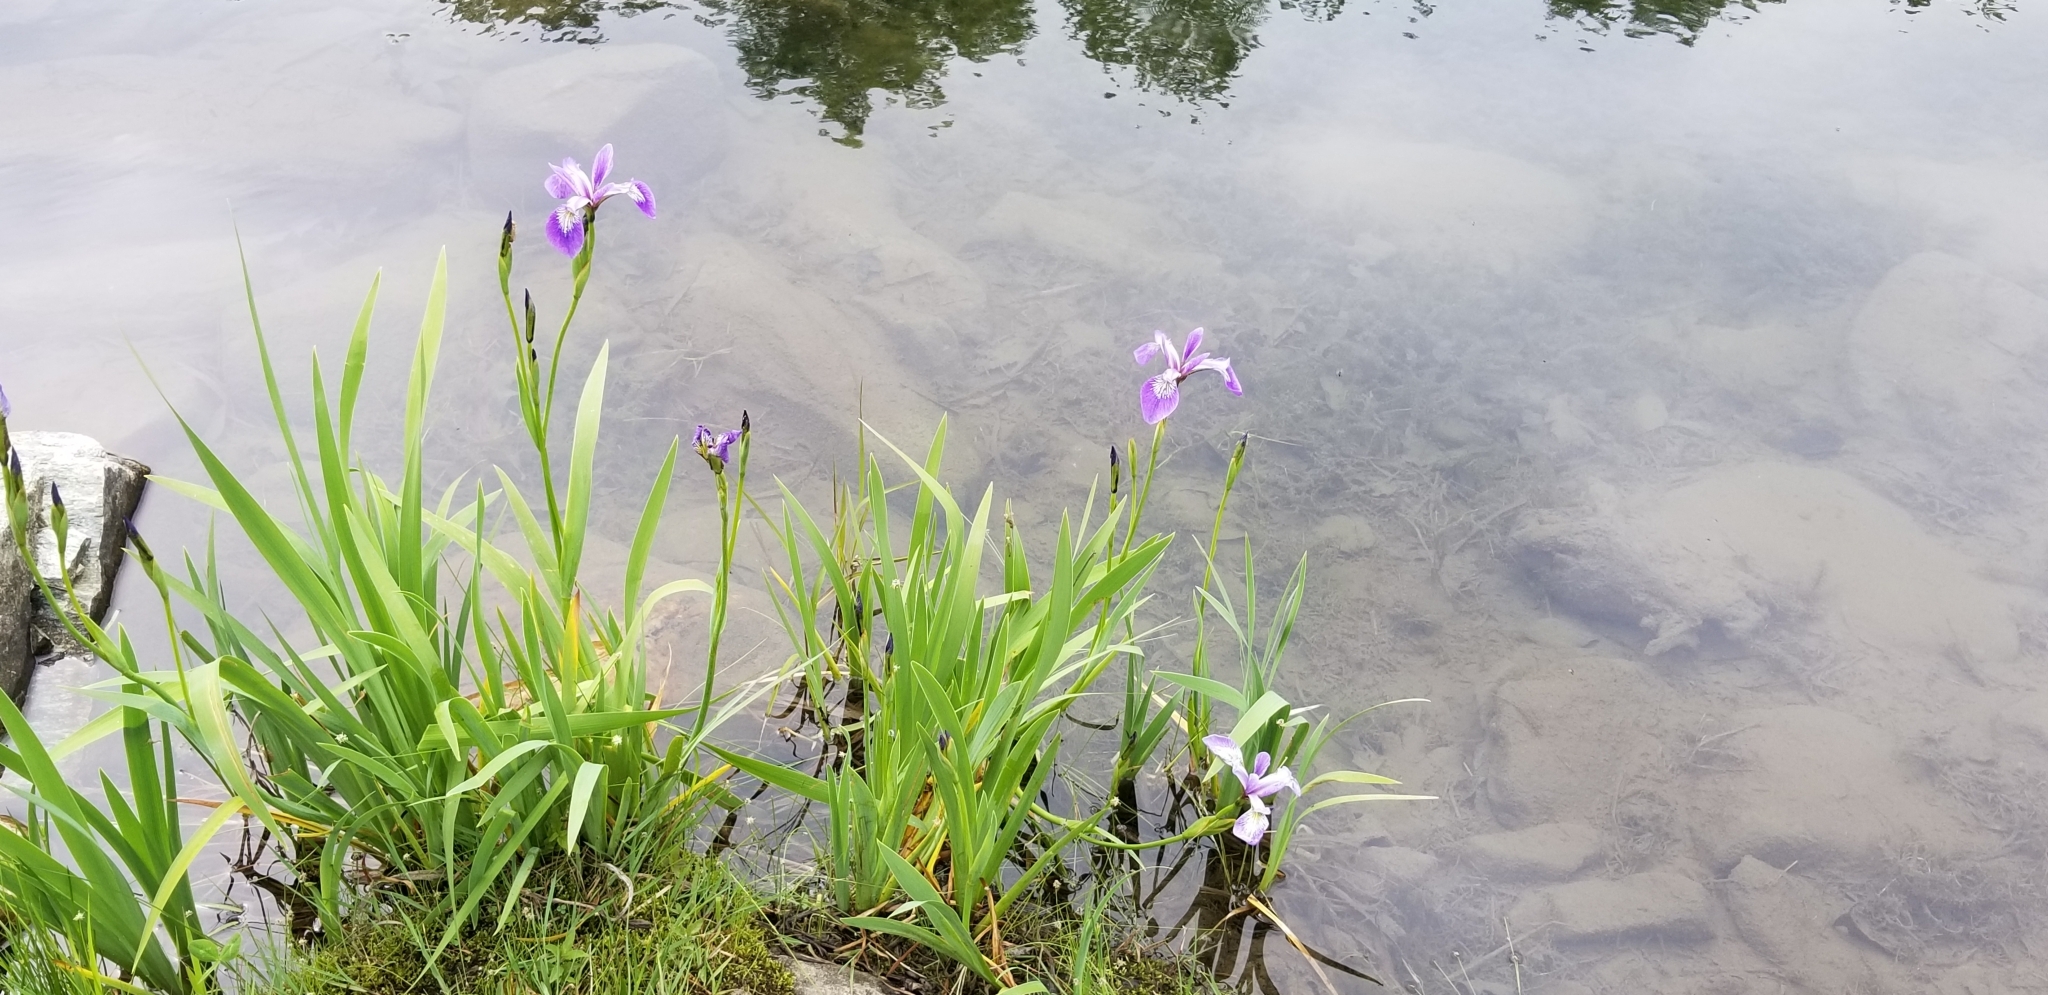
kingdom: Plantae
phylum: Tracheophyta
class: Liliopsida
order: Asparagales
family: Iridaceae
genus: Iris
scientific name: Iris versicolor
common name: Purple iris
